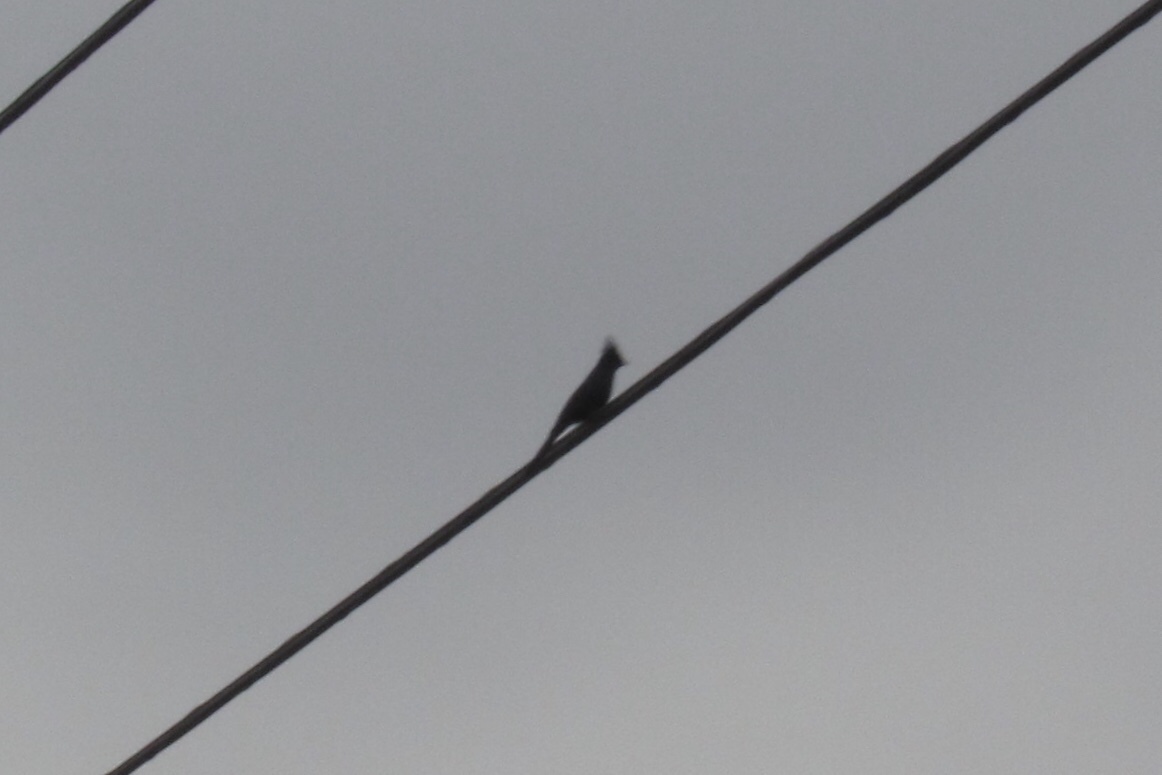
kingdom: Animalia
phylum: Chordata
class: Aves
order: Passeriformes
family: Ptilogonatidae
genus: Phainopepla
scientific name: Phainopepla nitens
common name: Phainopepla
